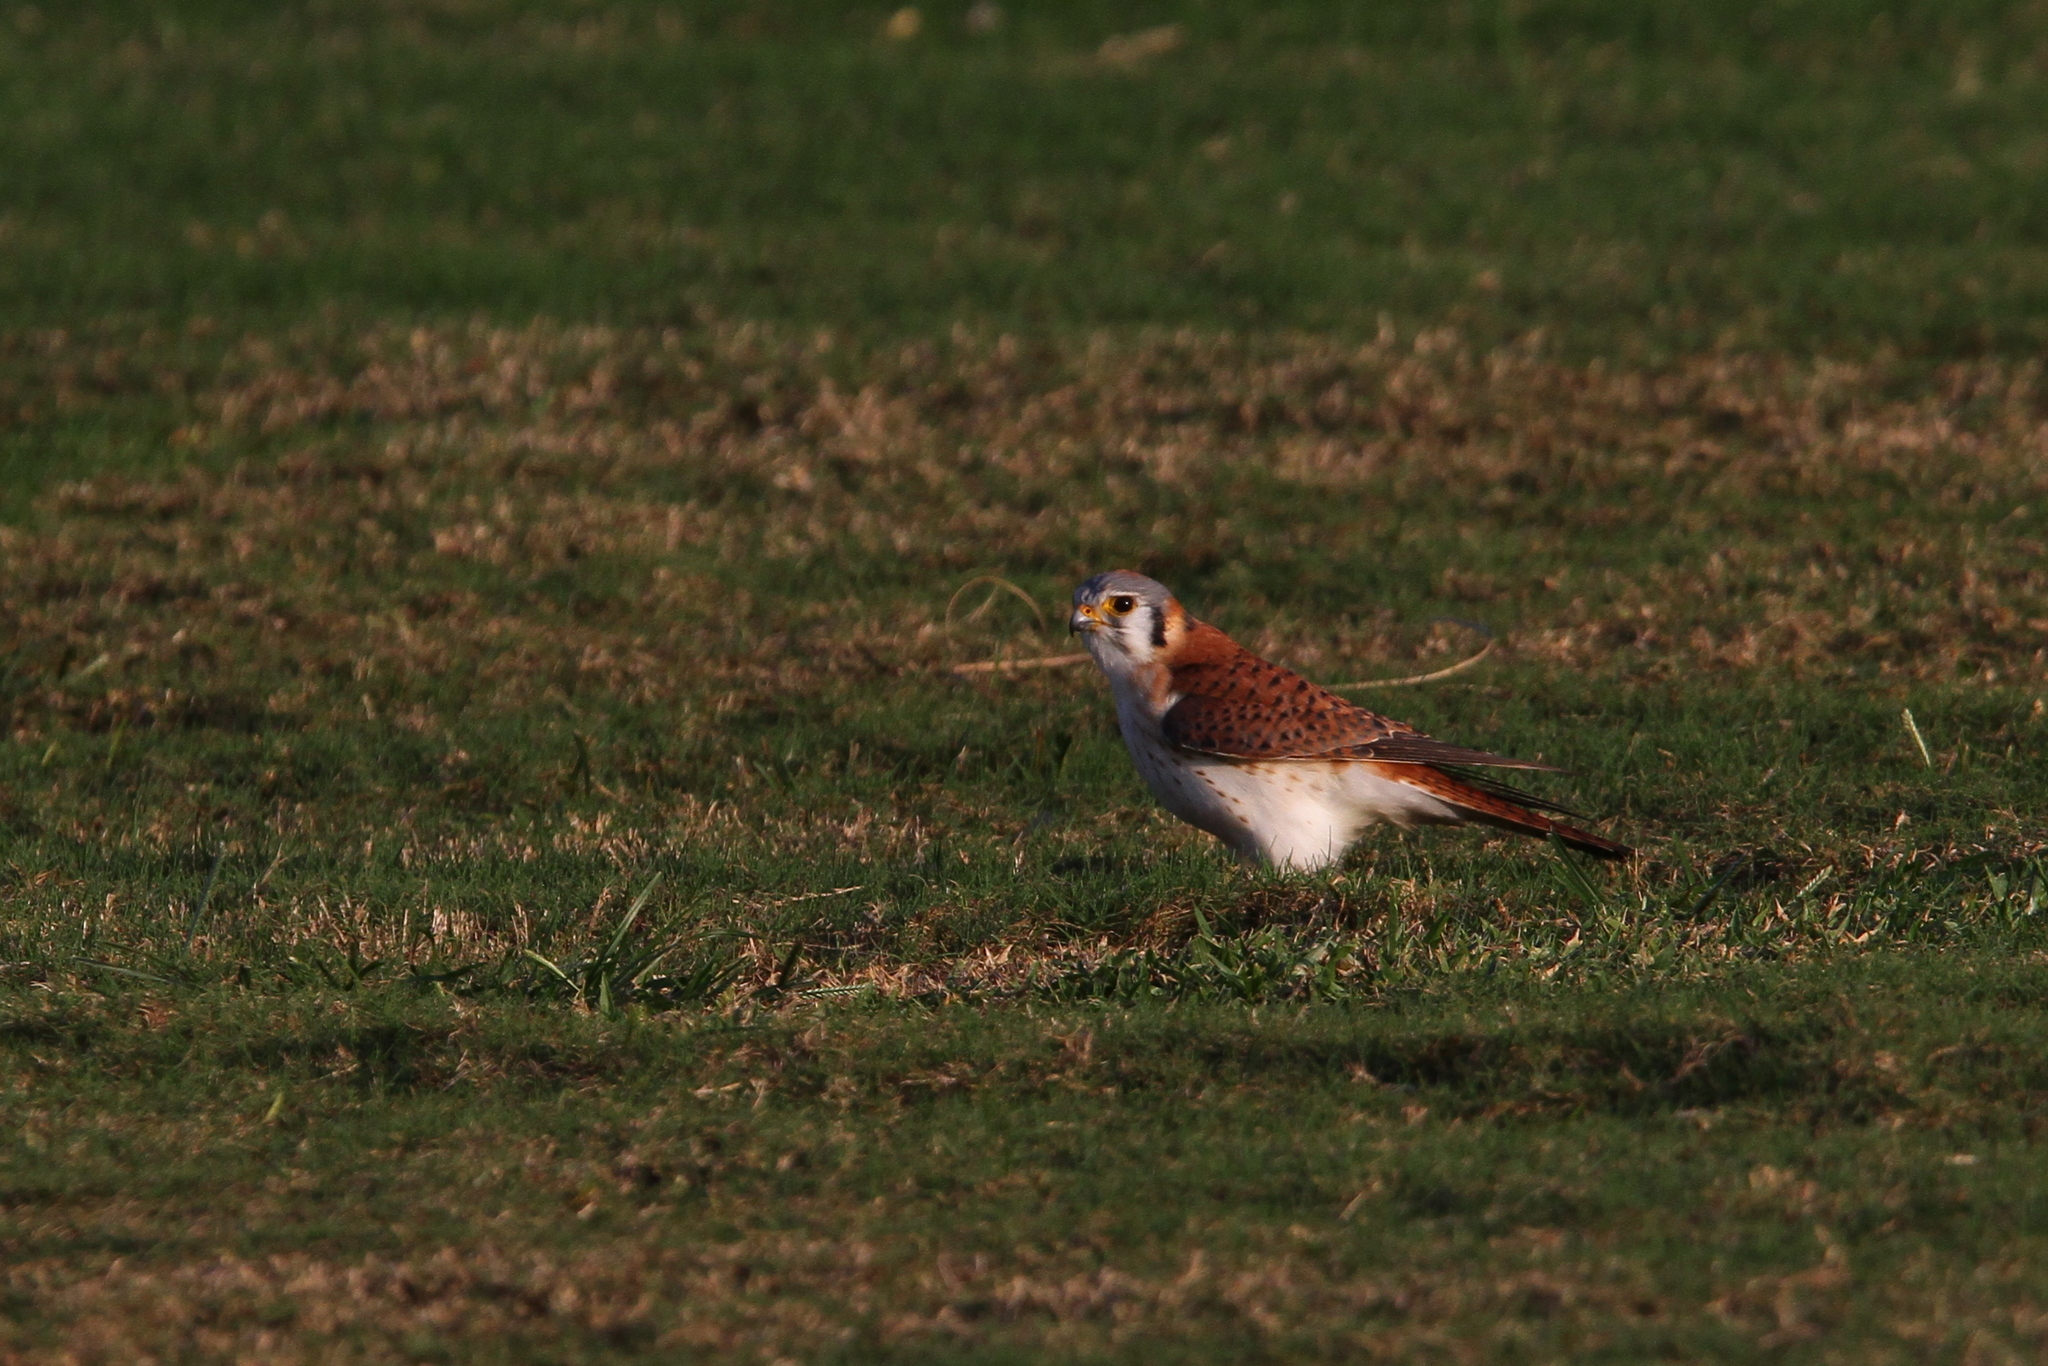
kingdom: Animalia
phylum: Chordata
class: Aves
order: Falconiformes
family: Falconidae
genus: Falco
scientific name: Falco sparverius
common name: American kestrel
